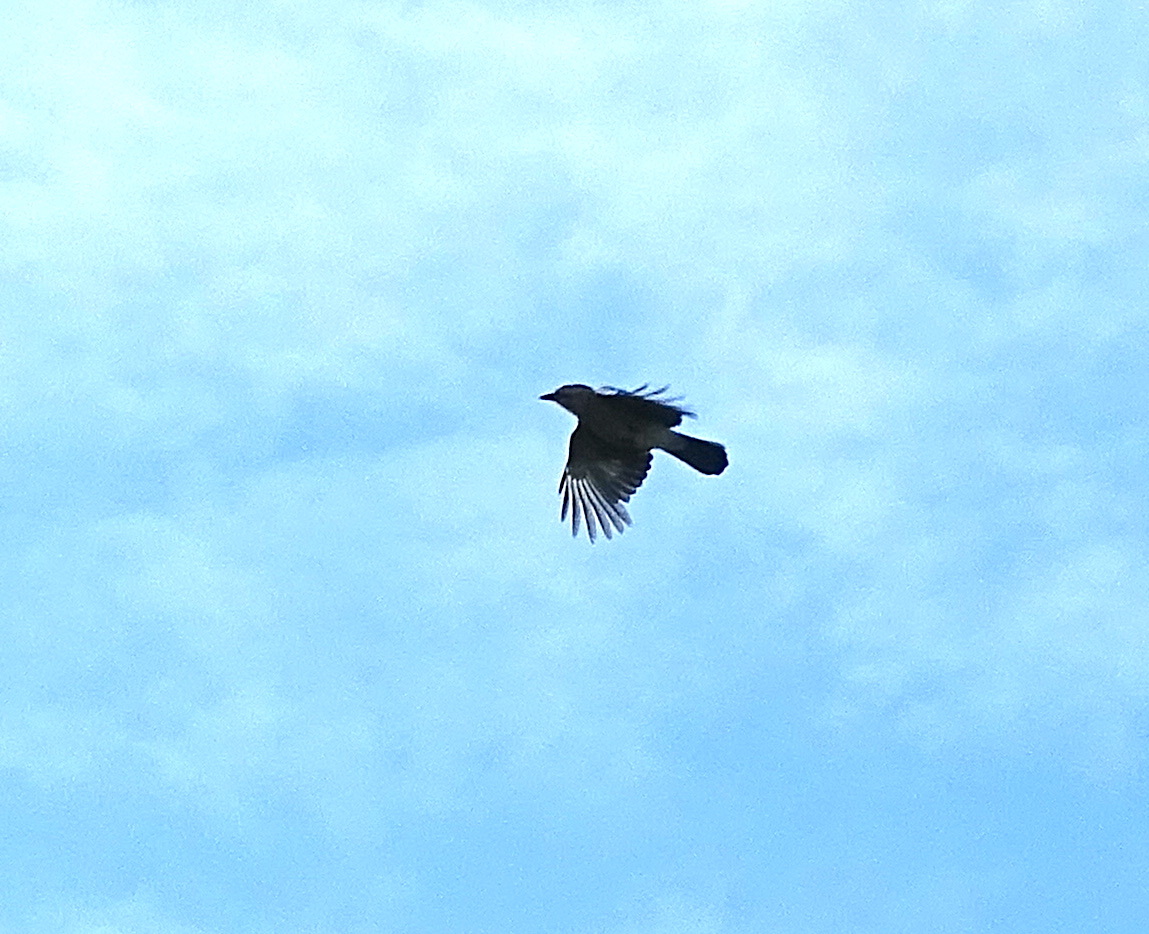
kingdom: Animalia
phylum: Chordata
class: Aves
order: Passeriformes
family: Corvidae
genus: Garrulus
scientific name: Garrulus glandarius
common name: Eurasian jay
